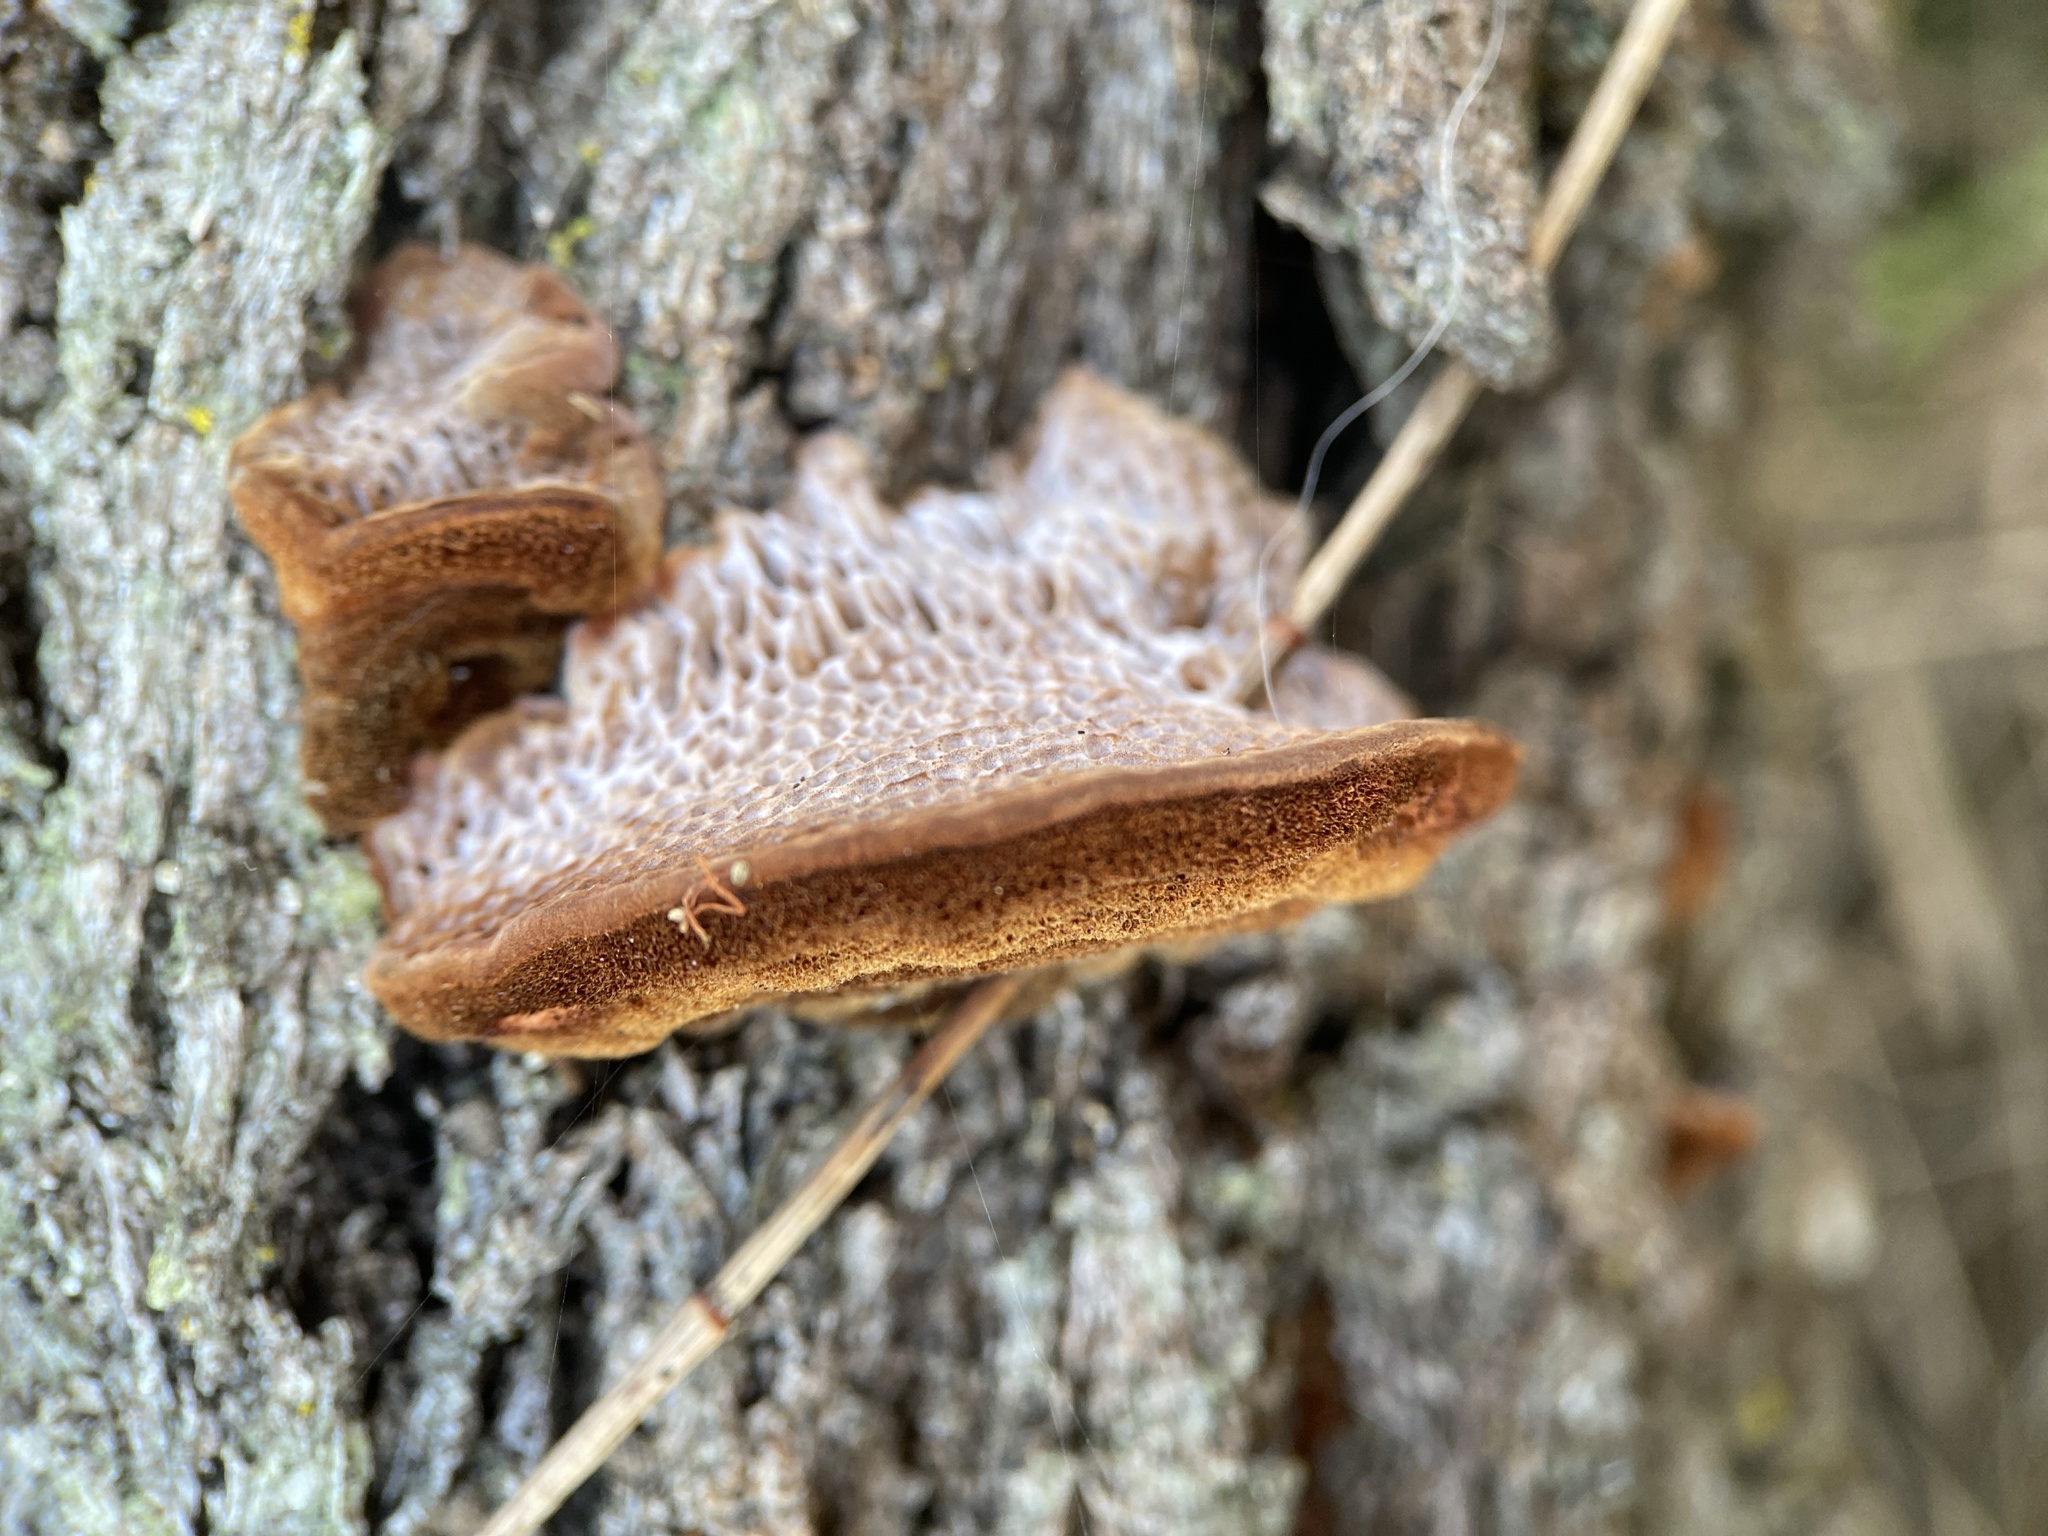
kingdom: Fungi
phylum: Basidiomycota
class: Agaricomycetes
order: Polyporales
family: Polyporaceae
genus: Phaeotrametes
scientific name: Phaeotrametes decipiens
